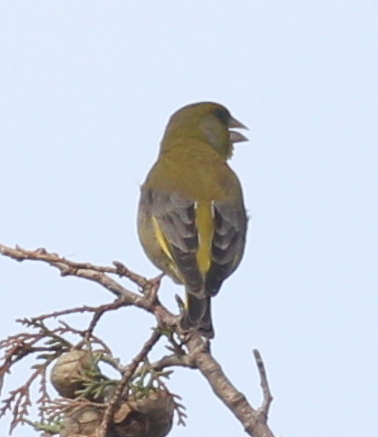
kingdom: Plantae
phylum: Tracheophyta
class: Liliopsida
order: Poales
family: Poaceae
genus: Chloris
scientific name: Chloris chloris
